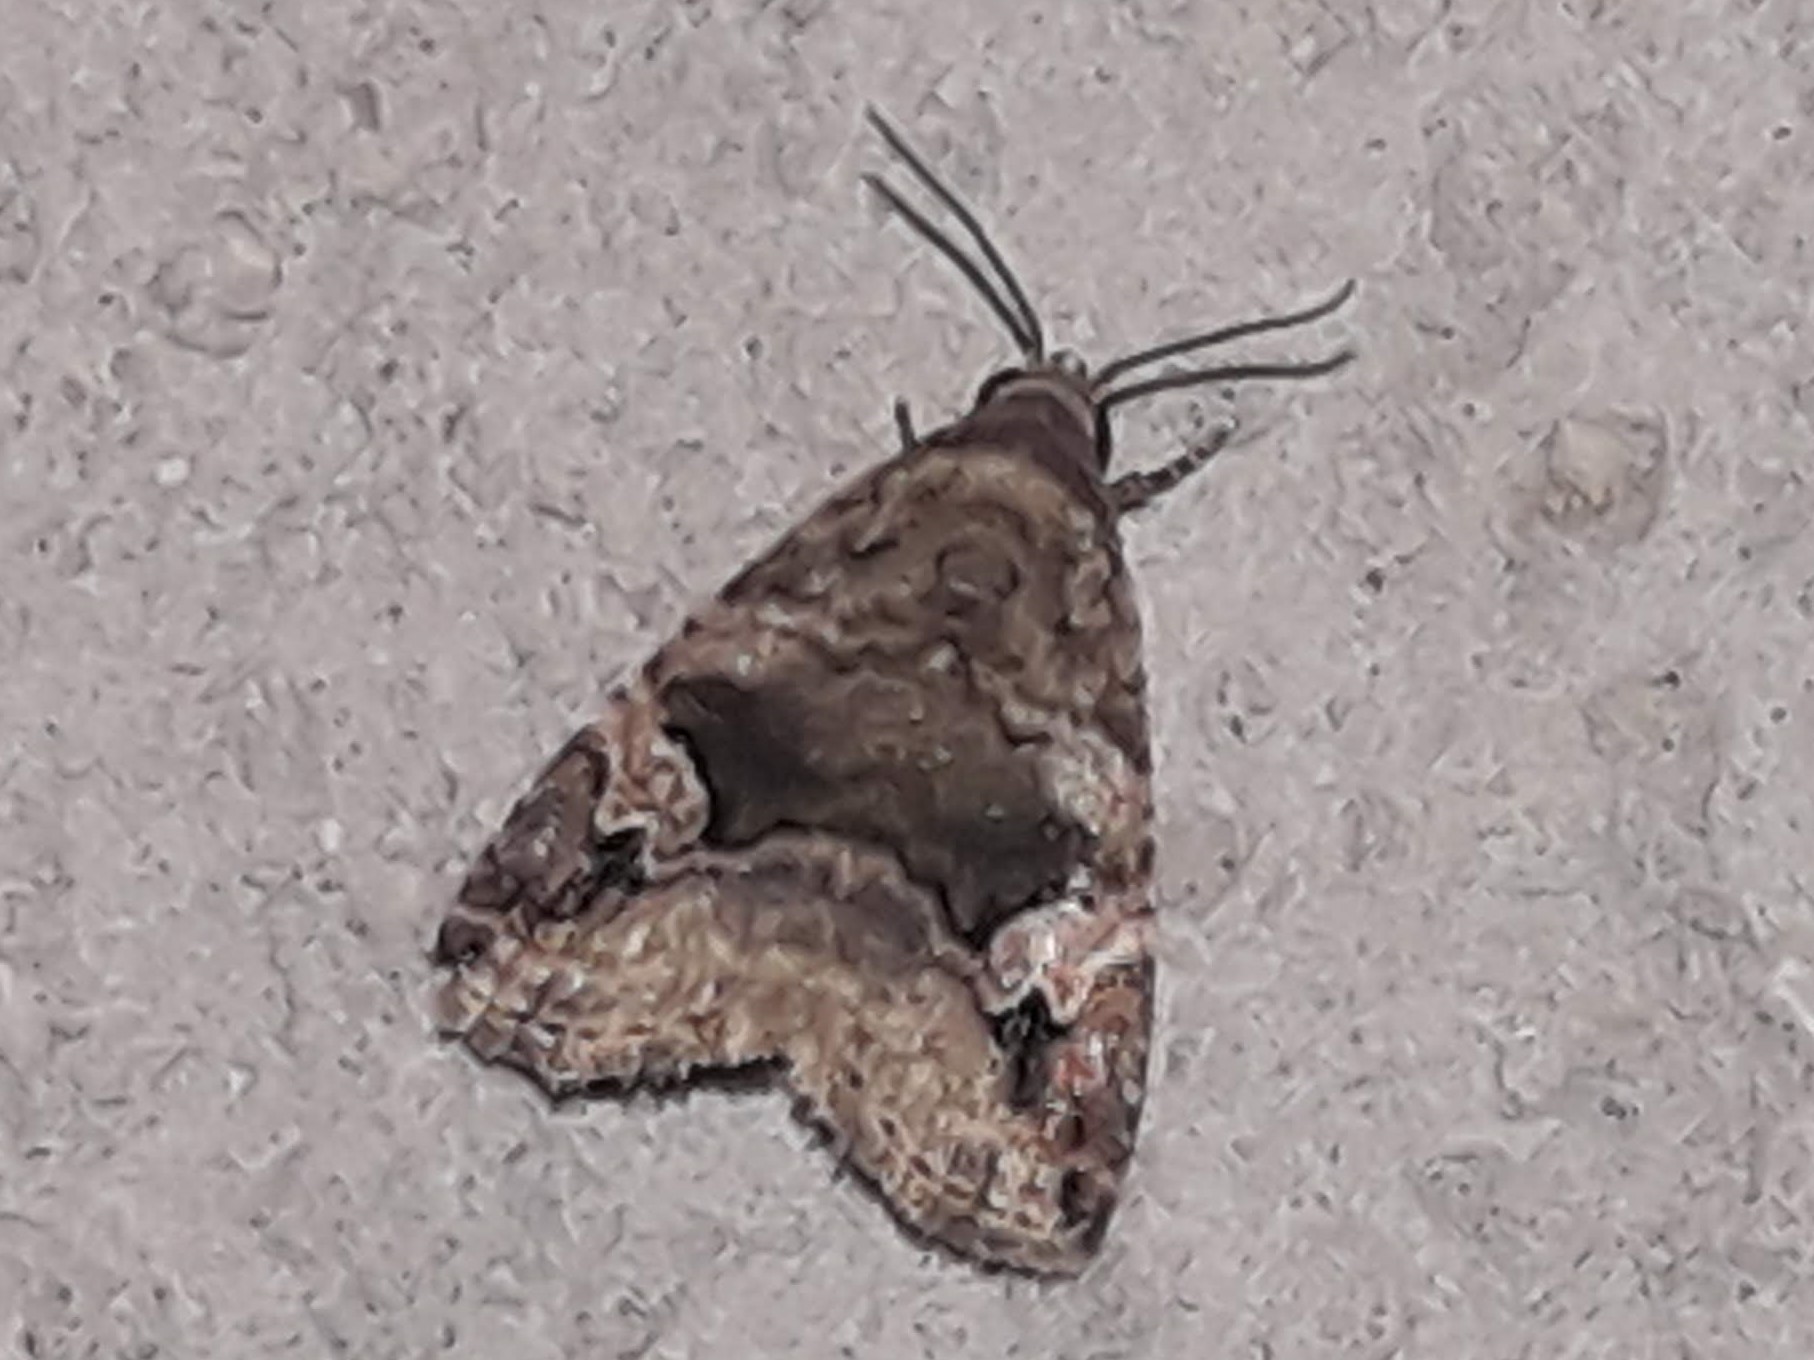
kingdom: Animalia
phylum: Arthropoda
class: Insecta
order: Lepidoptera
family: Noctuidae
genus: Ozarba
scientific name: Ozarba geta
